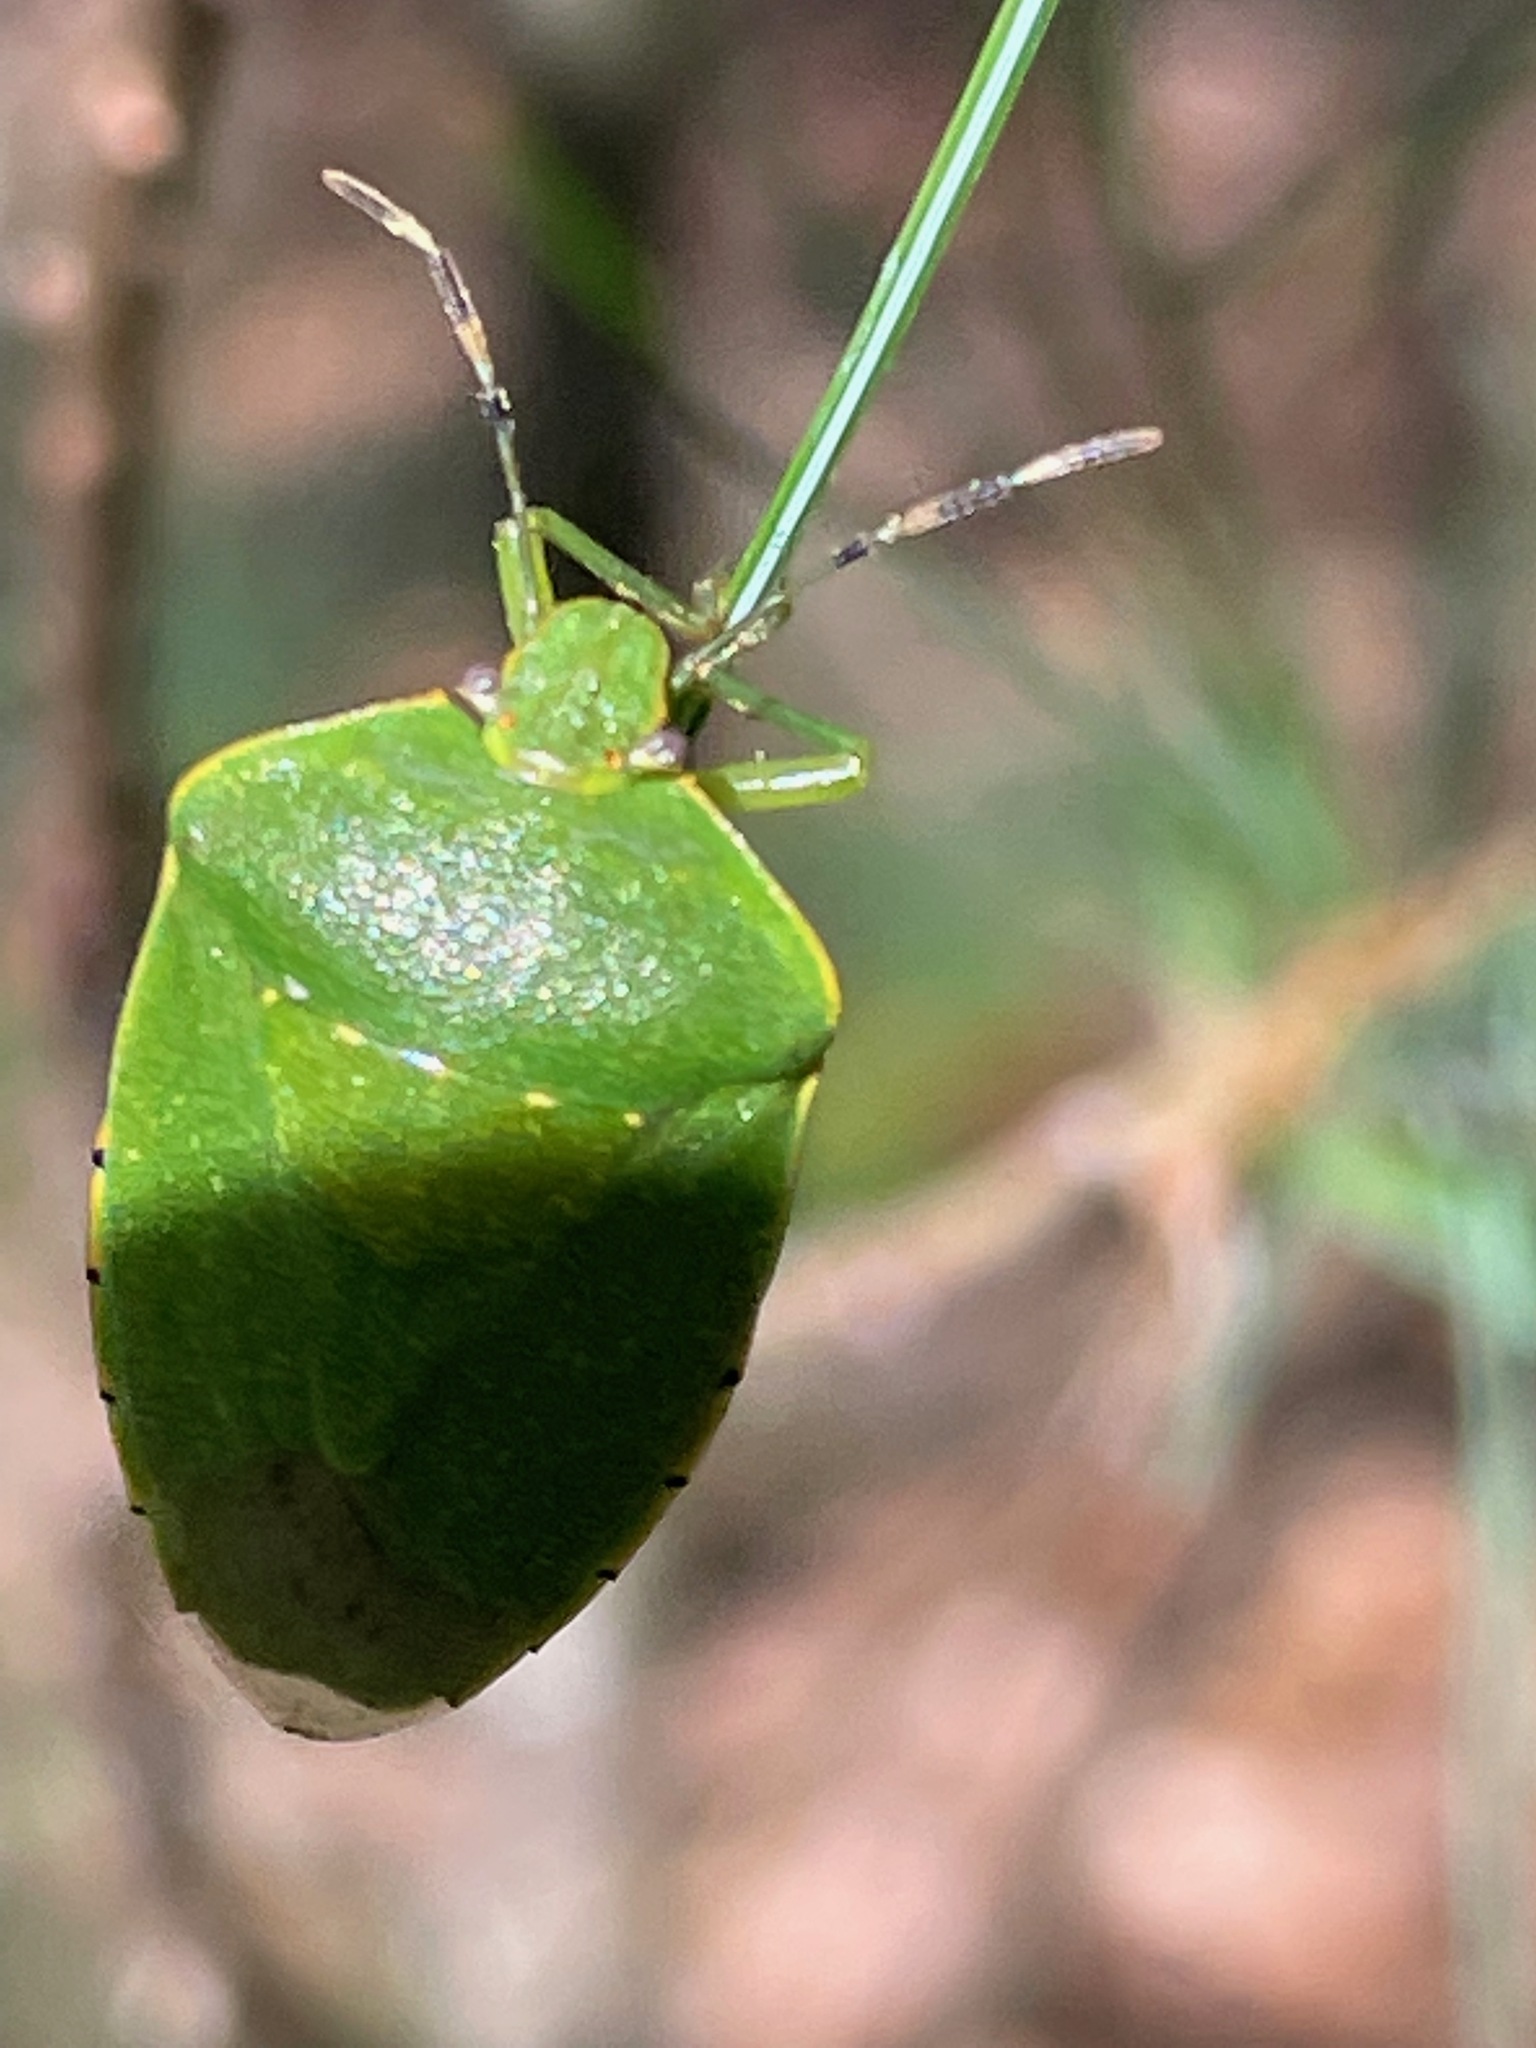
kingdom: Animalia
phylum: Arthropoda
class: Insecta
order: Hemiptera
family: Pentatomidae
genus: Chinavia
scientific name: Chinavia hilaris
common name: Green stink bug
